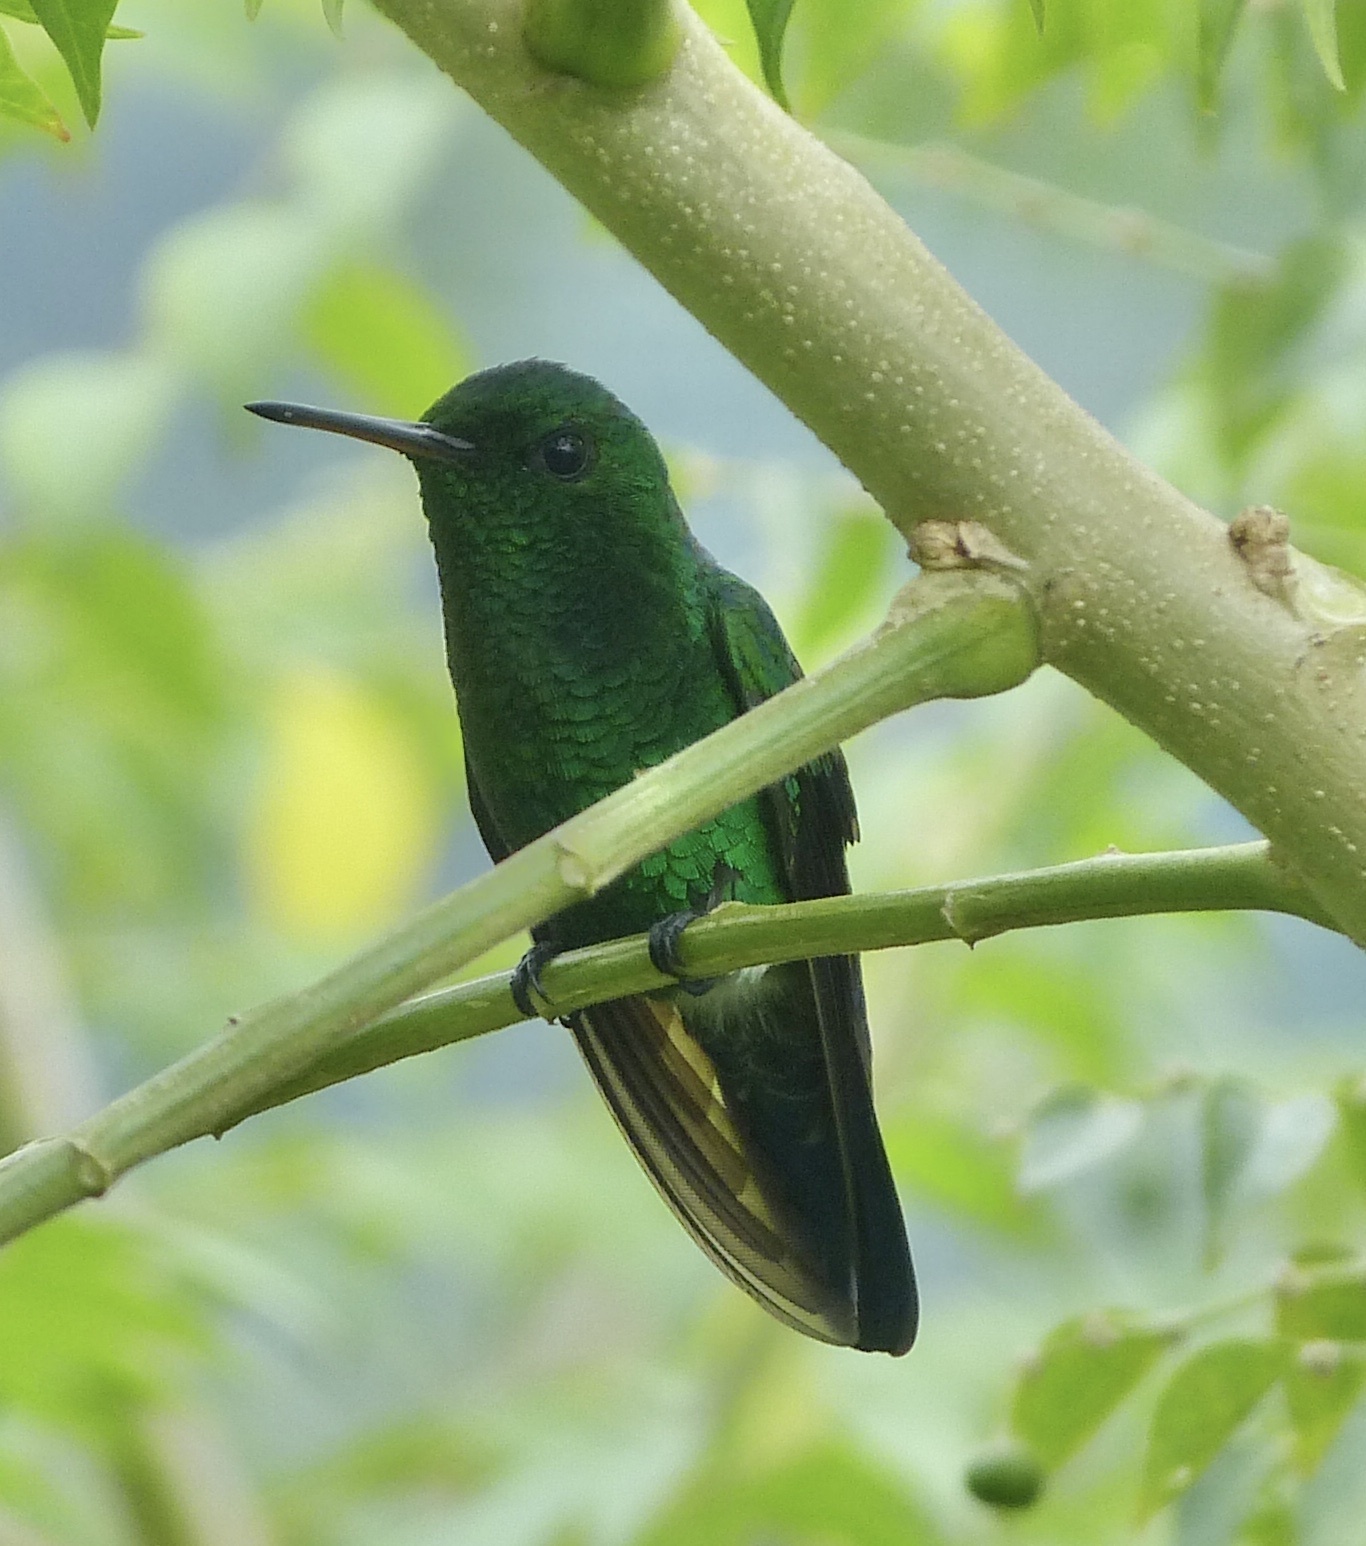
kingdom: Animalia
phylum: Chordata
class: Aves
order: Apodiformes
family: Trochilidae
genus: Saucerottia
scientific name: Saucerottia saucerottei
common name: Steely-vented hummingbird
